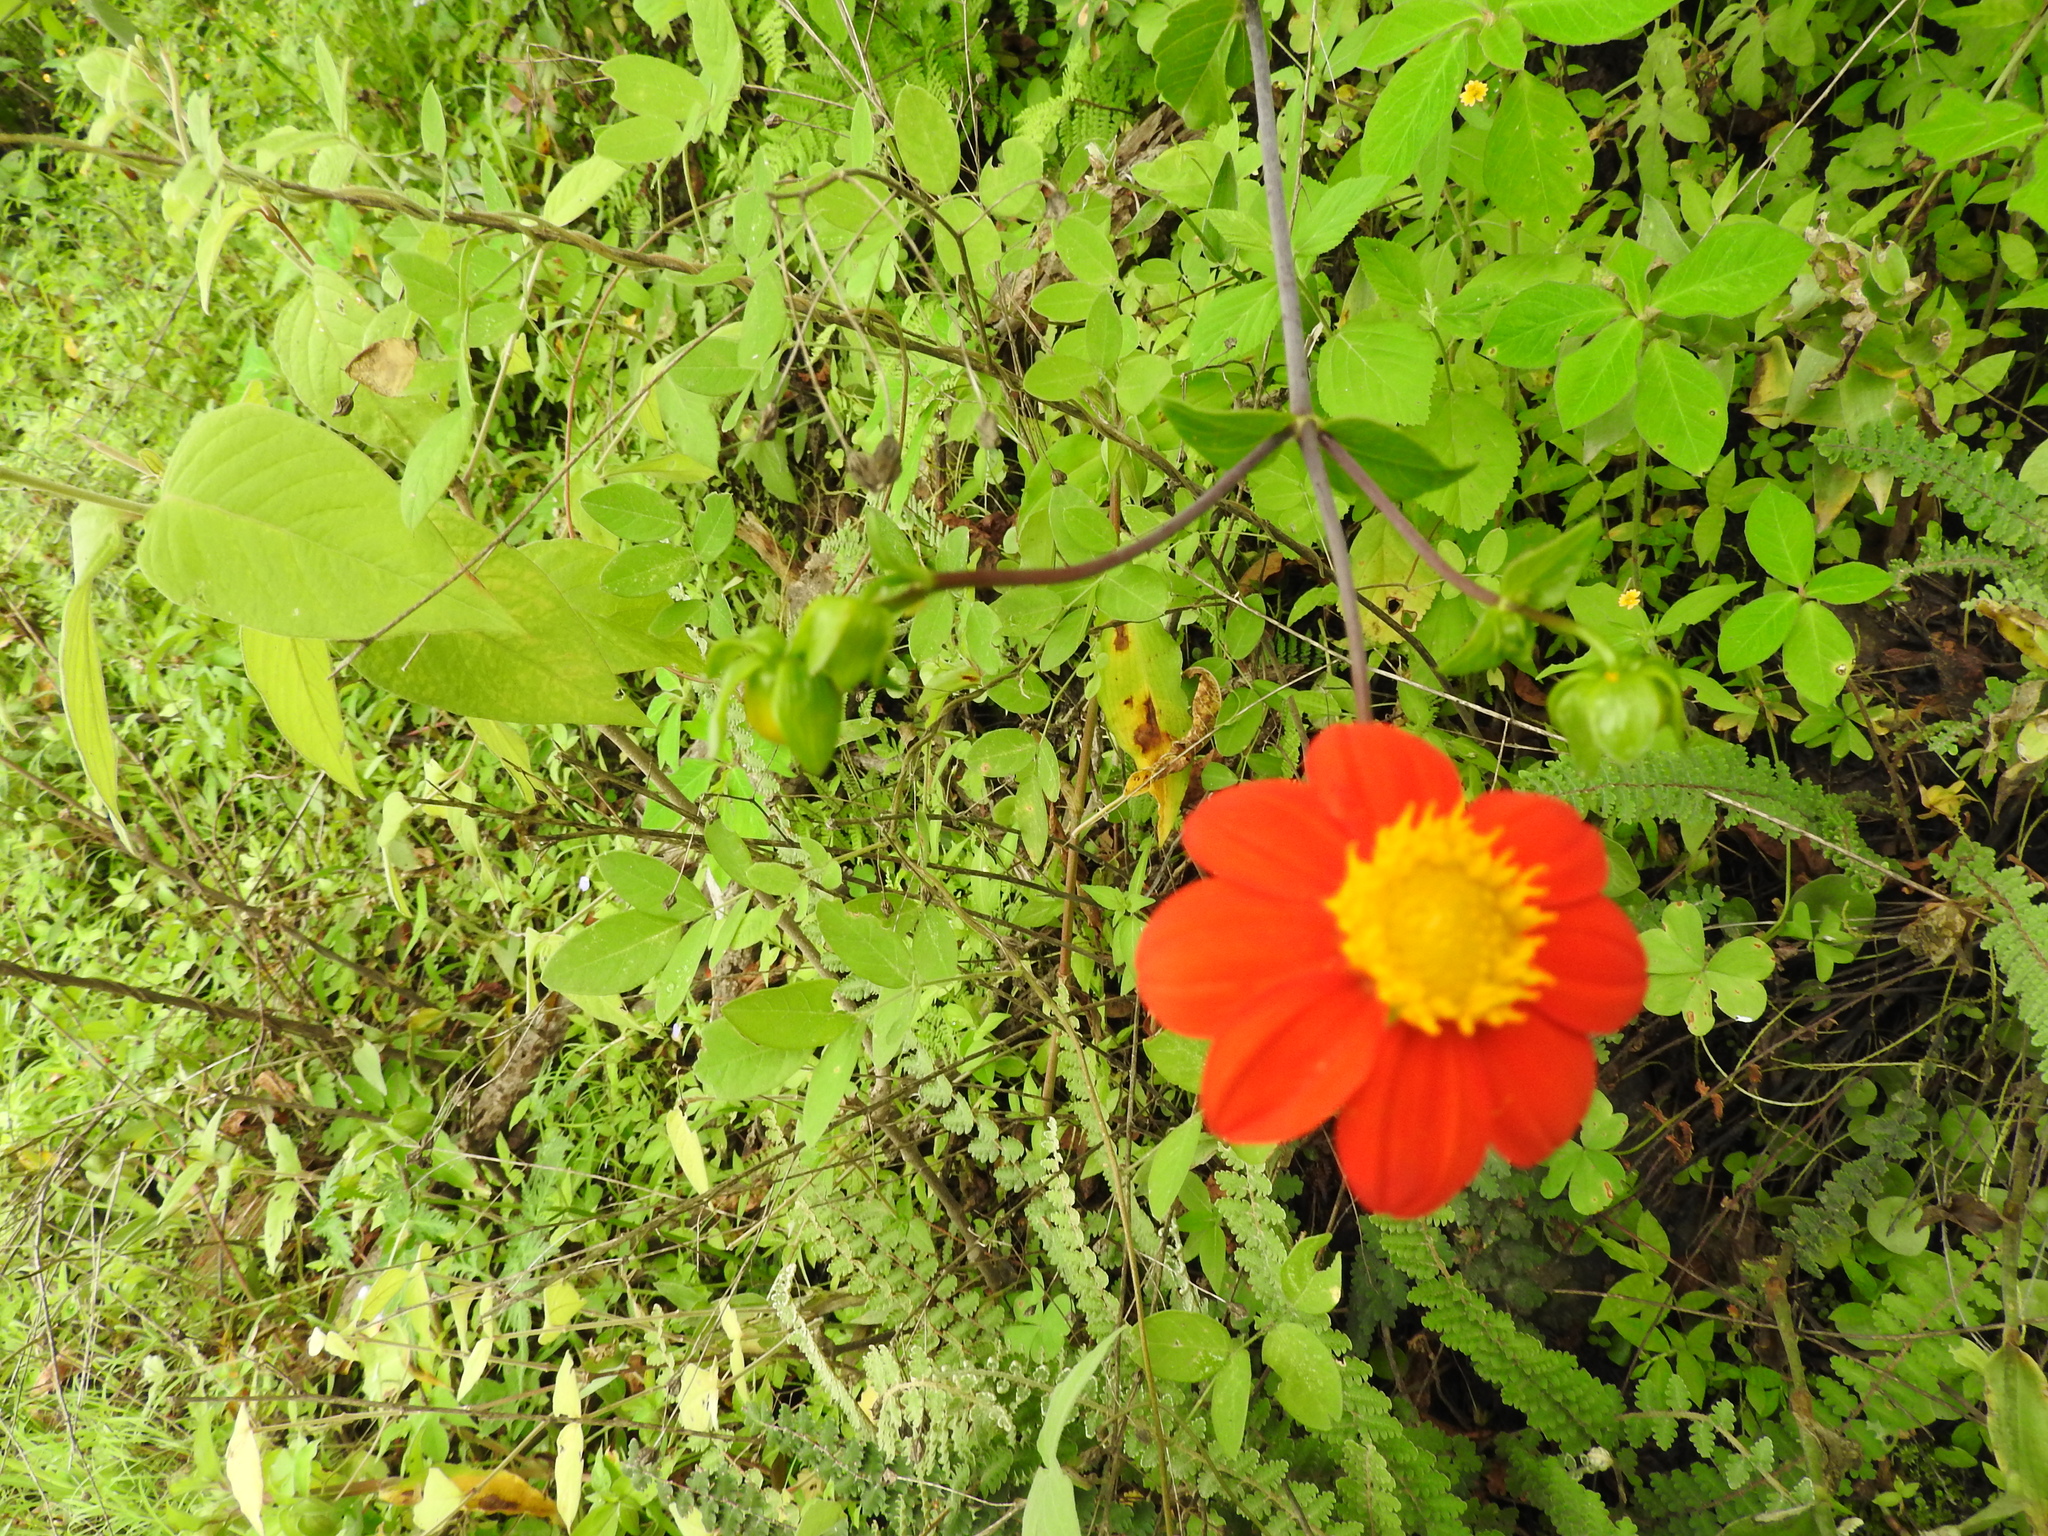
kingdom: Plantae
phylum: Tracheophyta
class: Magnoliopsida
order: Asterales
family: Asteraceae
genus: Dahlia
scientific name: Dahlia coccinea
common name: Red dahlia
